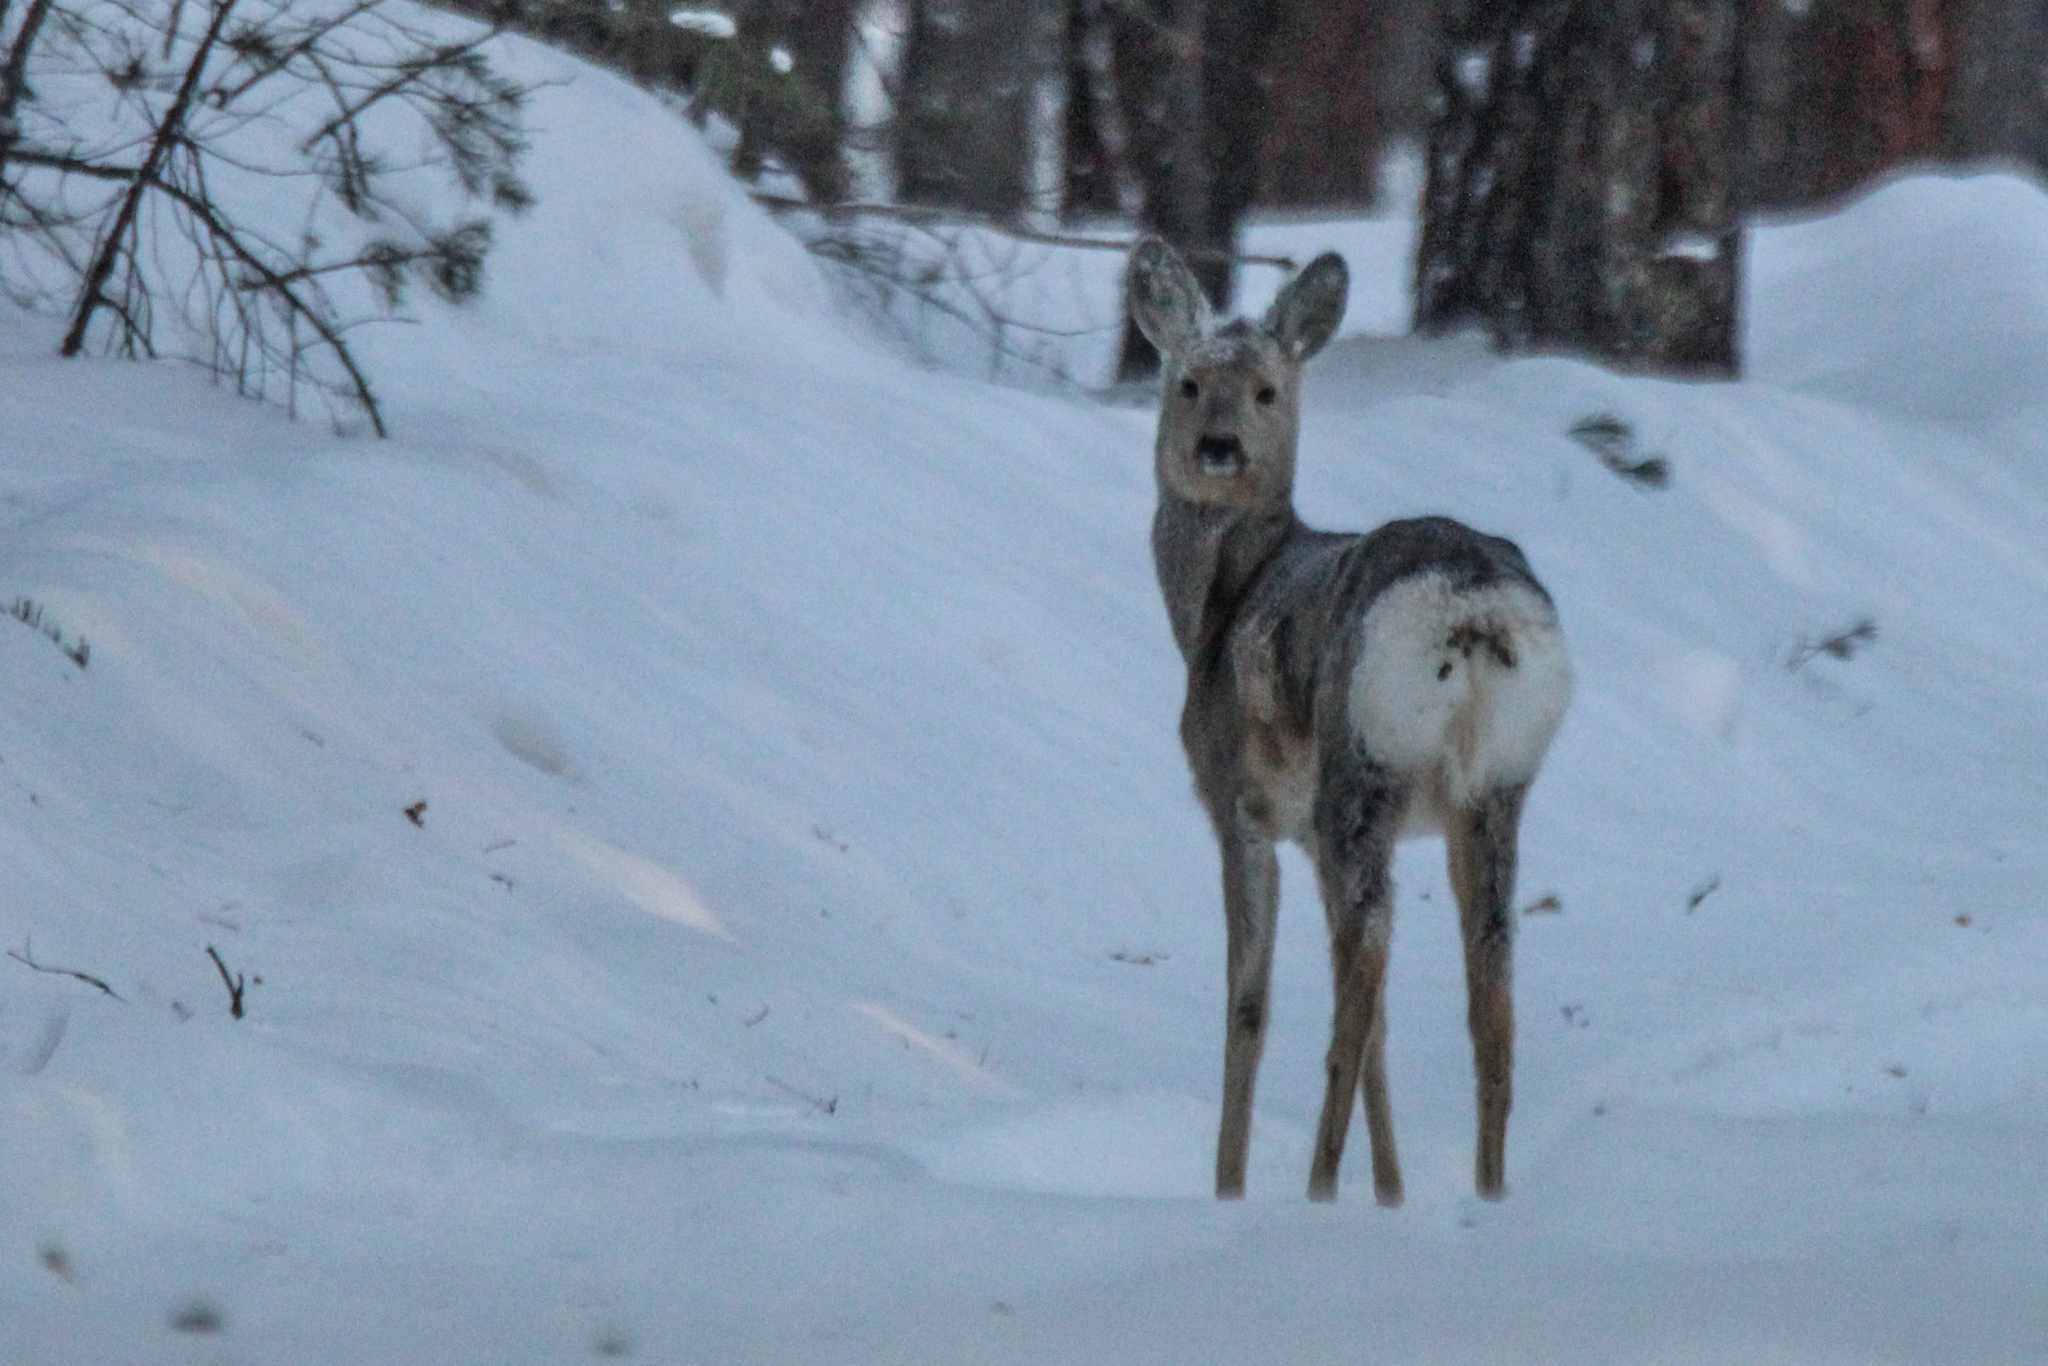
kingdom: Animalia
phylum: Chordata
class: Mammalia
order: Artiodactyla
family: Cervidae
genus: Capreolus
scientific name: Capreolus pygargus
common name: Siberian roe
